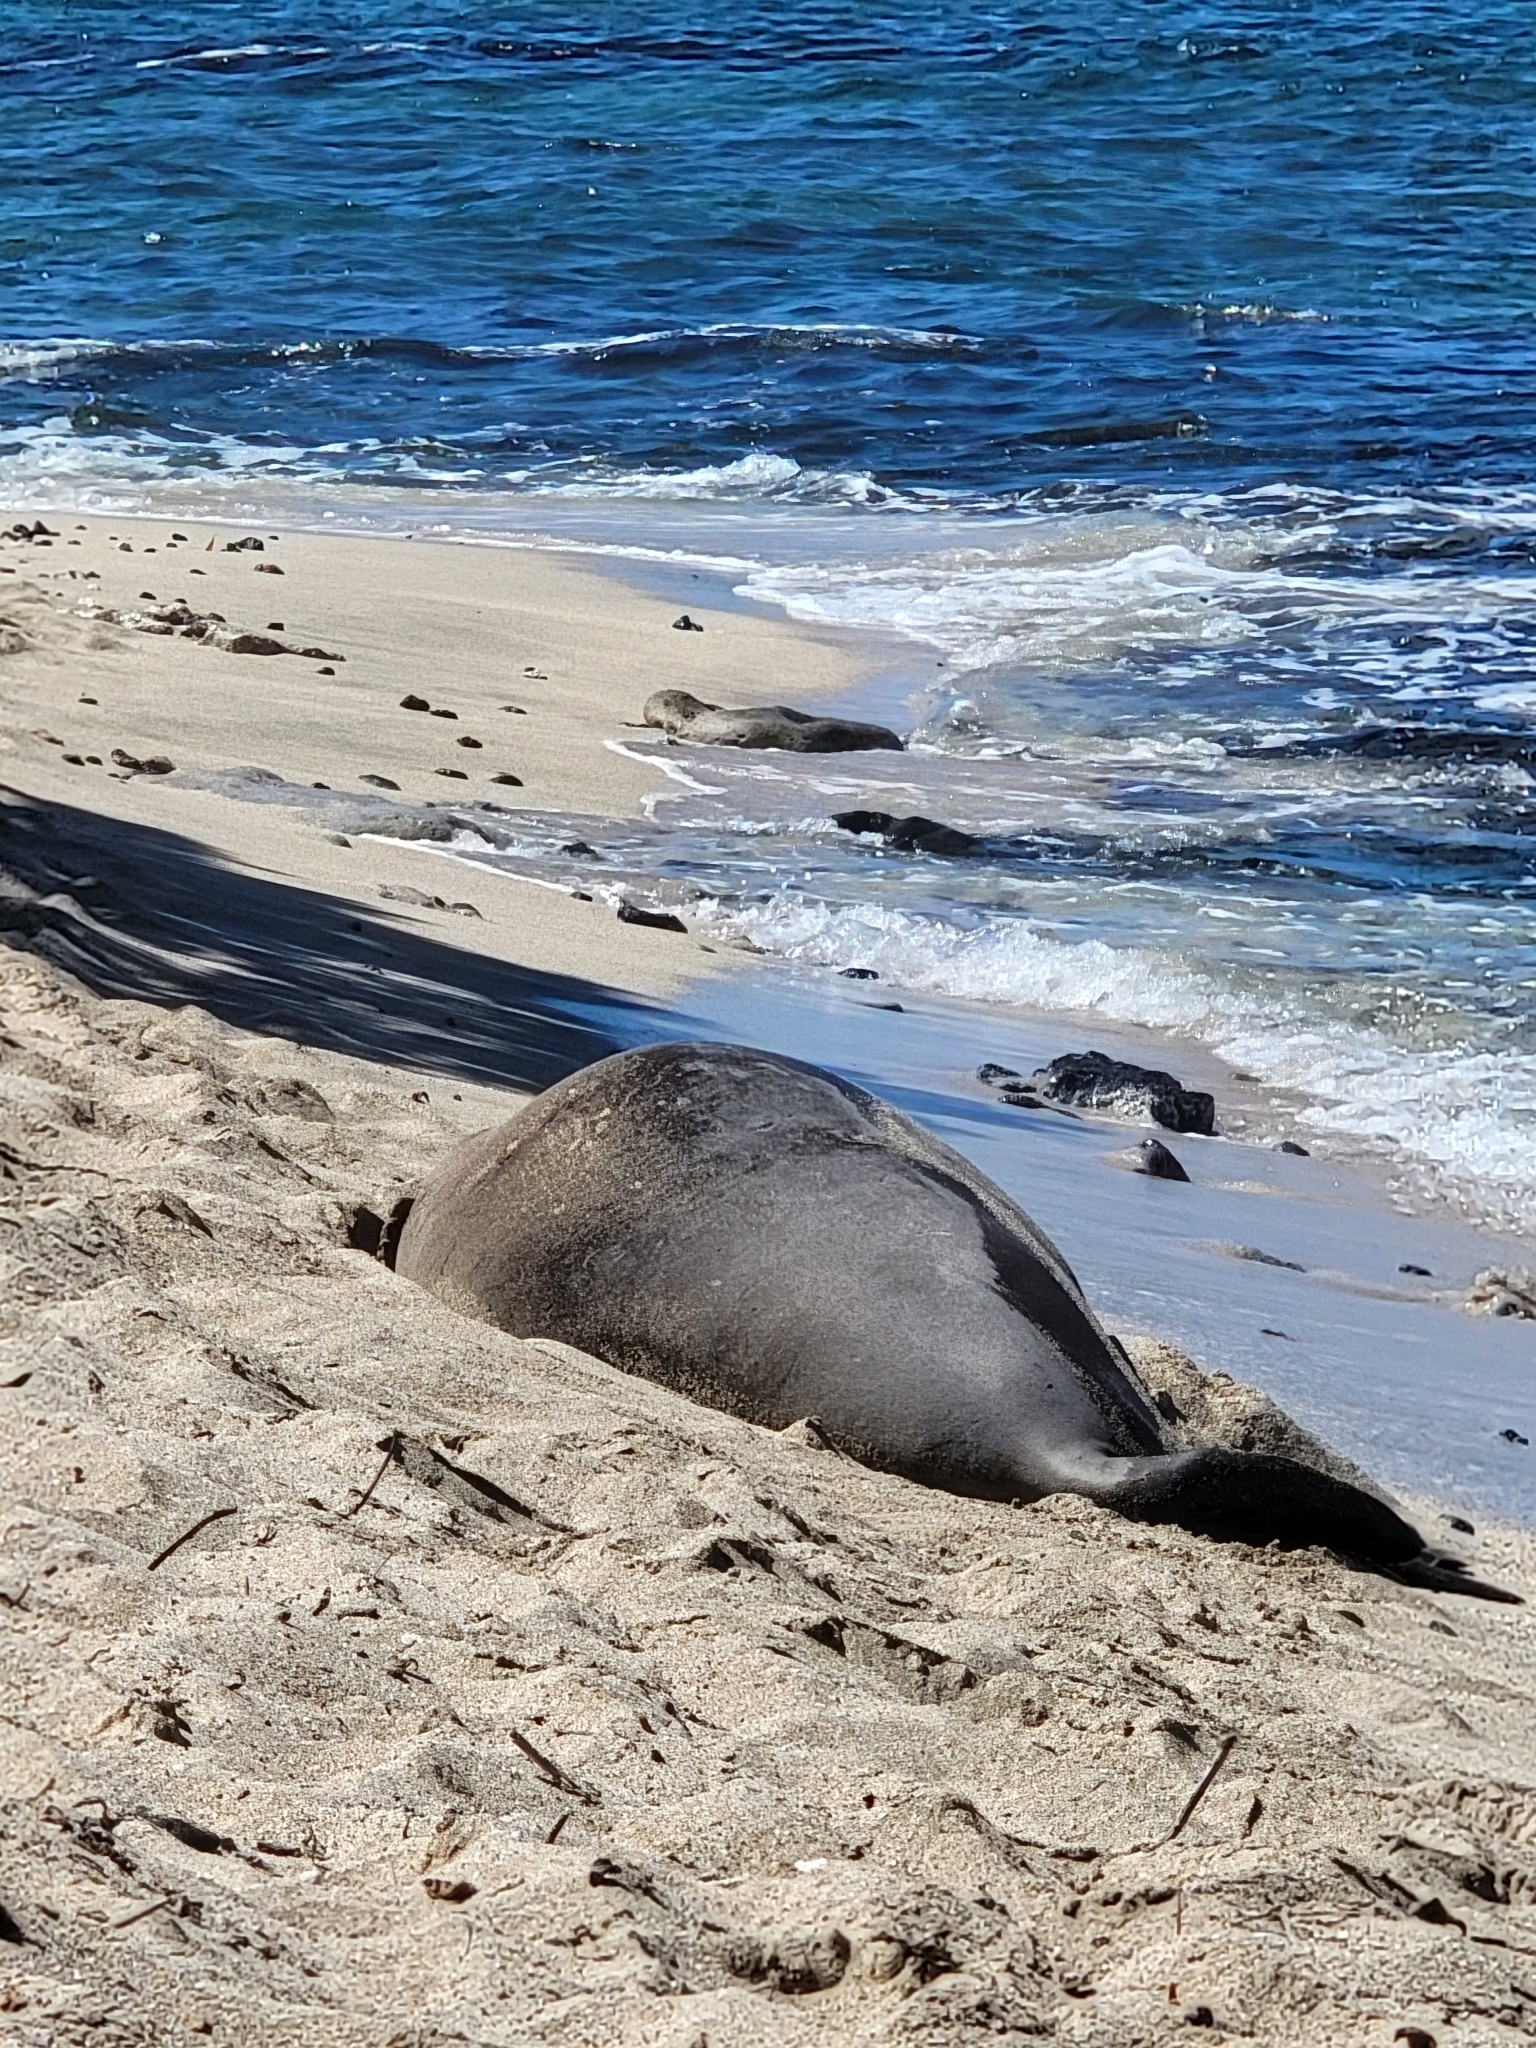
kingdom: Animalia
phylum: Chordata
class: Mammalia
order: Carnivora
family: Phocidae
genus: Neomonachus
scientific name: Neomonachus schauinslandi
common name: Hawaiian monk seal
